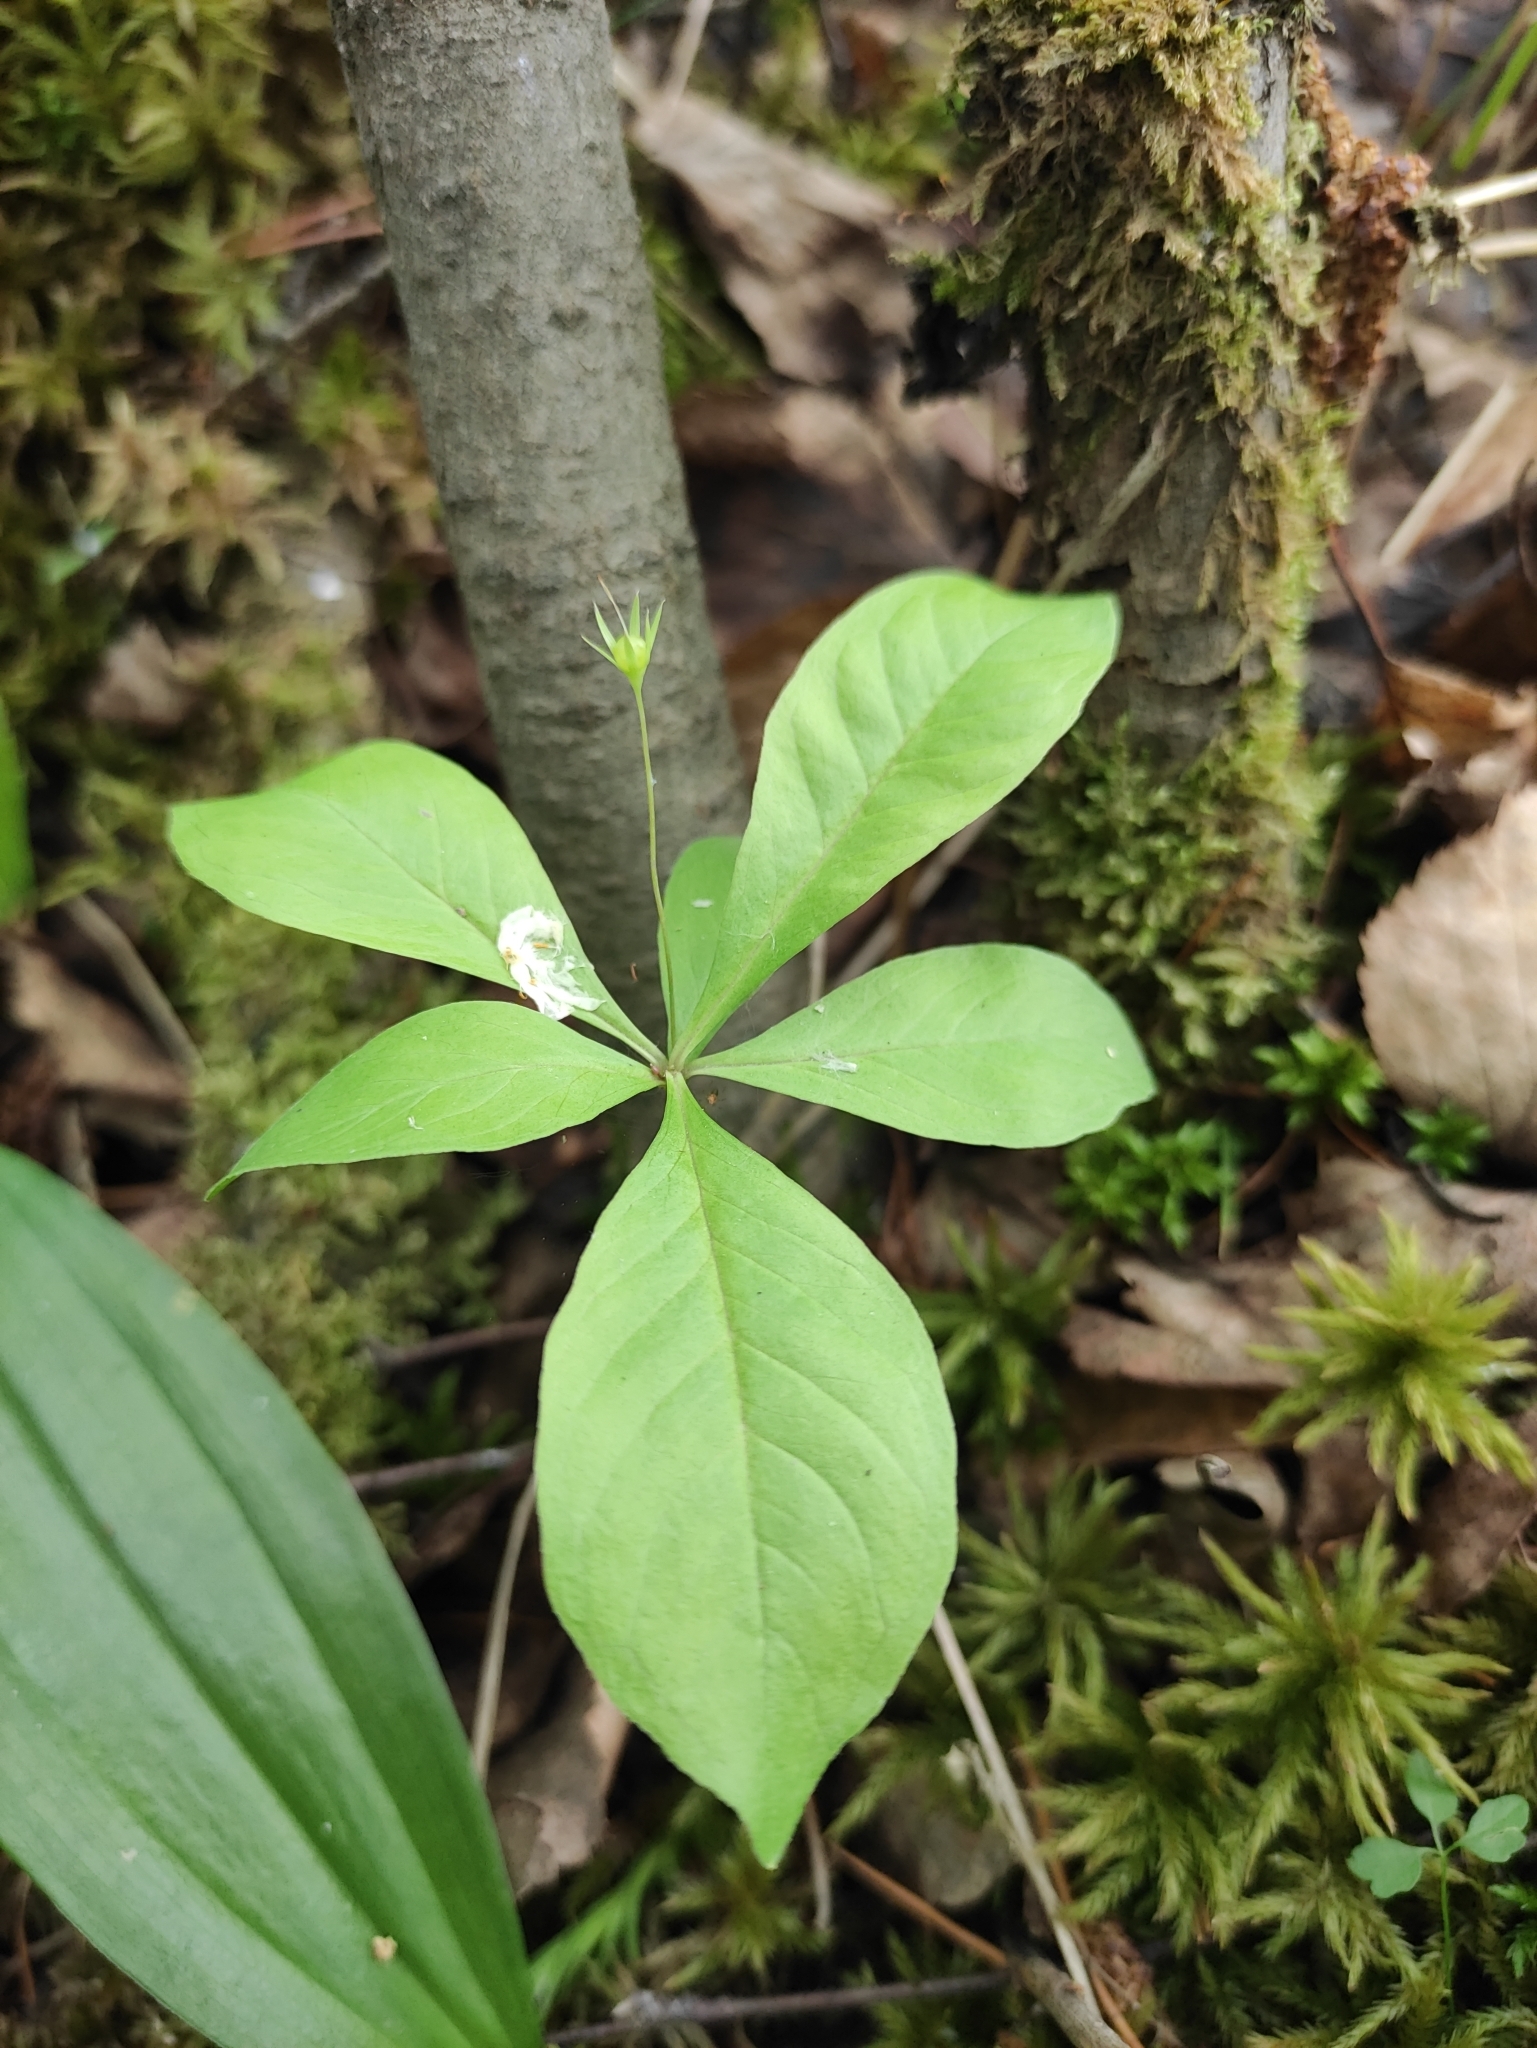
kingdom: Plantae
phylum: Tracheophyta
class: Magnoliopsida
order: Ericales
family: Primulaceae
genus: Lysimachia
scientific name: Lysimachia europaea
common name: Arctic starflower
